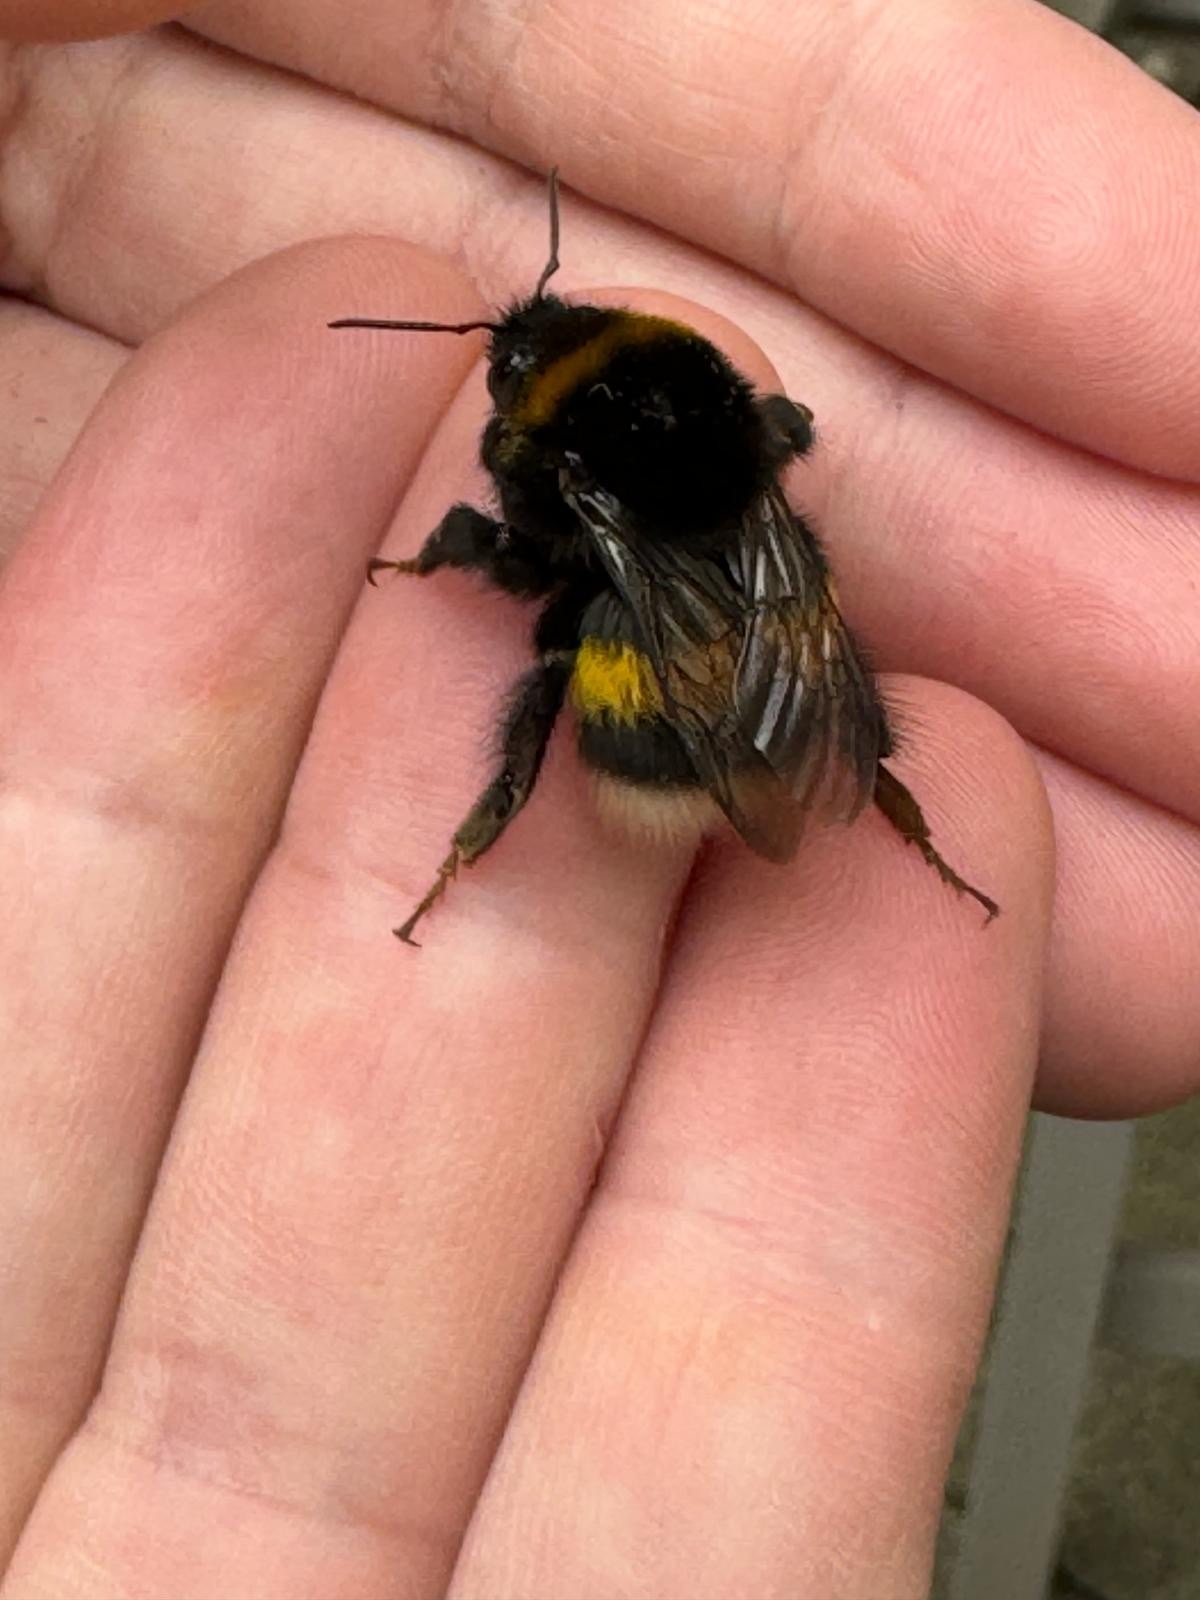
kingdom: Animalia
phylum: Arthropoda
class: Insecta
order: Hymenoptera
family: Apidae
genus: Bombus
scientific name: Bombus
